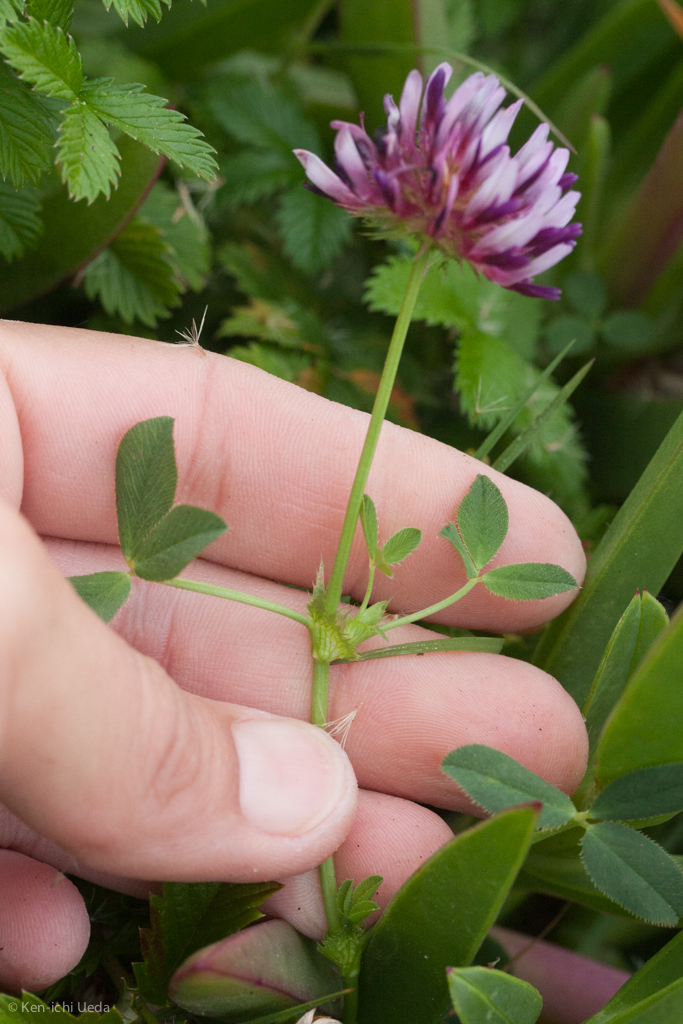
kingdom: Plantae
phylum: Tracheophyta
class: Magnoliopsida
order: Fabales
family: Fabaceae
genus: Trifolium
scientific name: Trifolium wormskioldii
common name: Springbank clover
